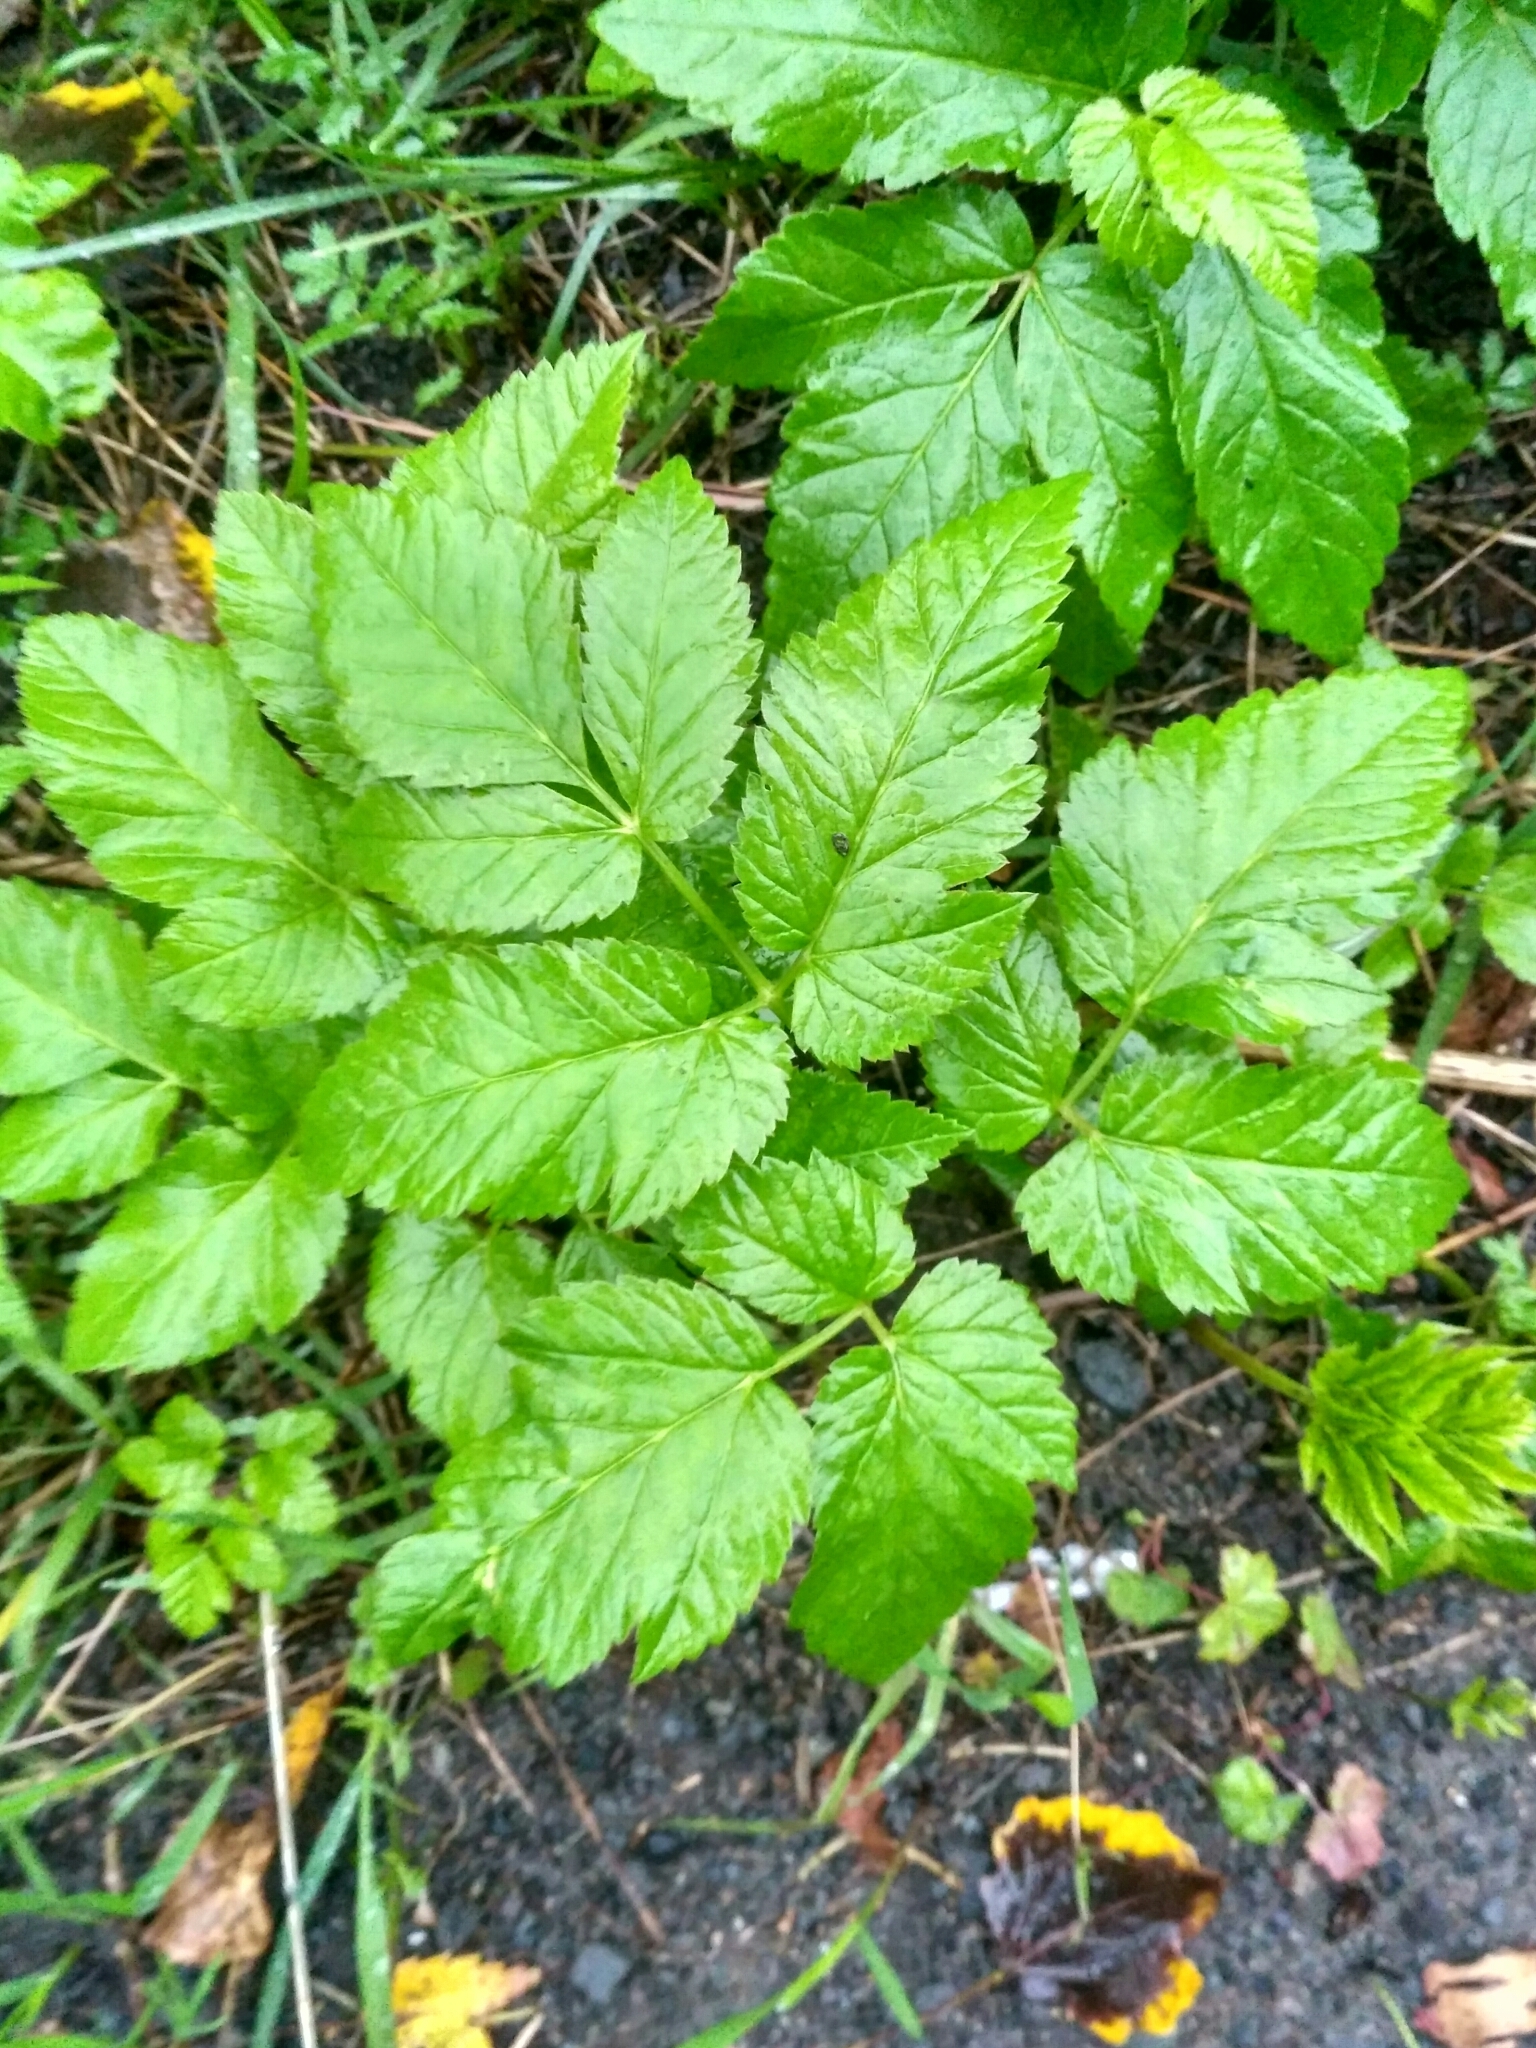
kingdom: Plantae
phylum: Tracheophyta
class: Magnoliopsida
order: Apiales
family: Apiaceae
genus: Aegopodium
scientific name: Aegopodium podagraria
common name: Ground-elder
